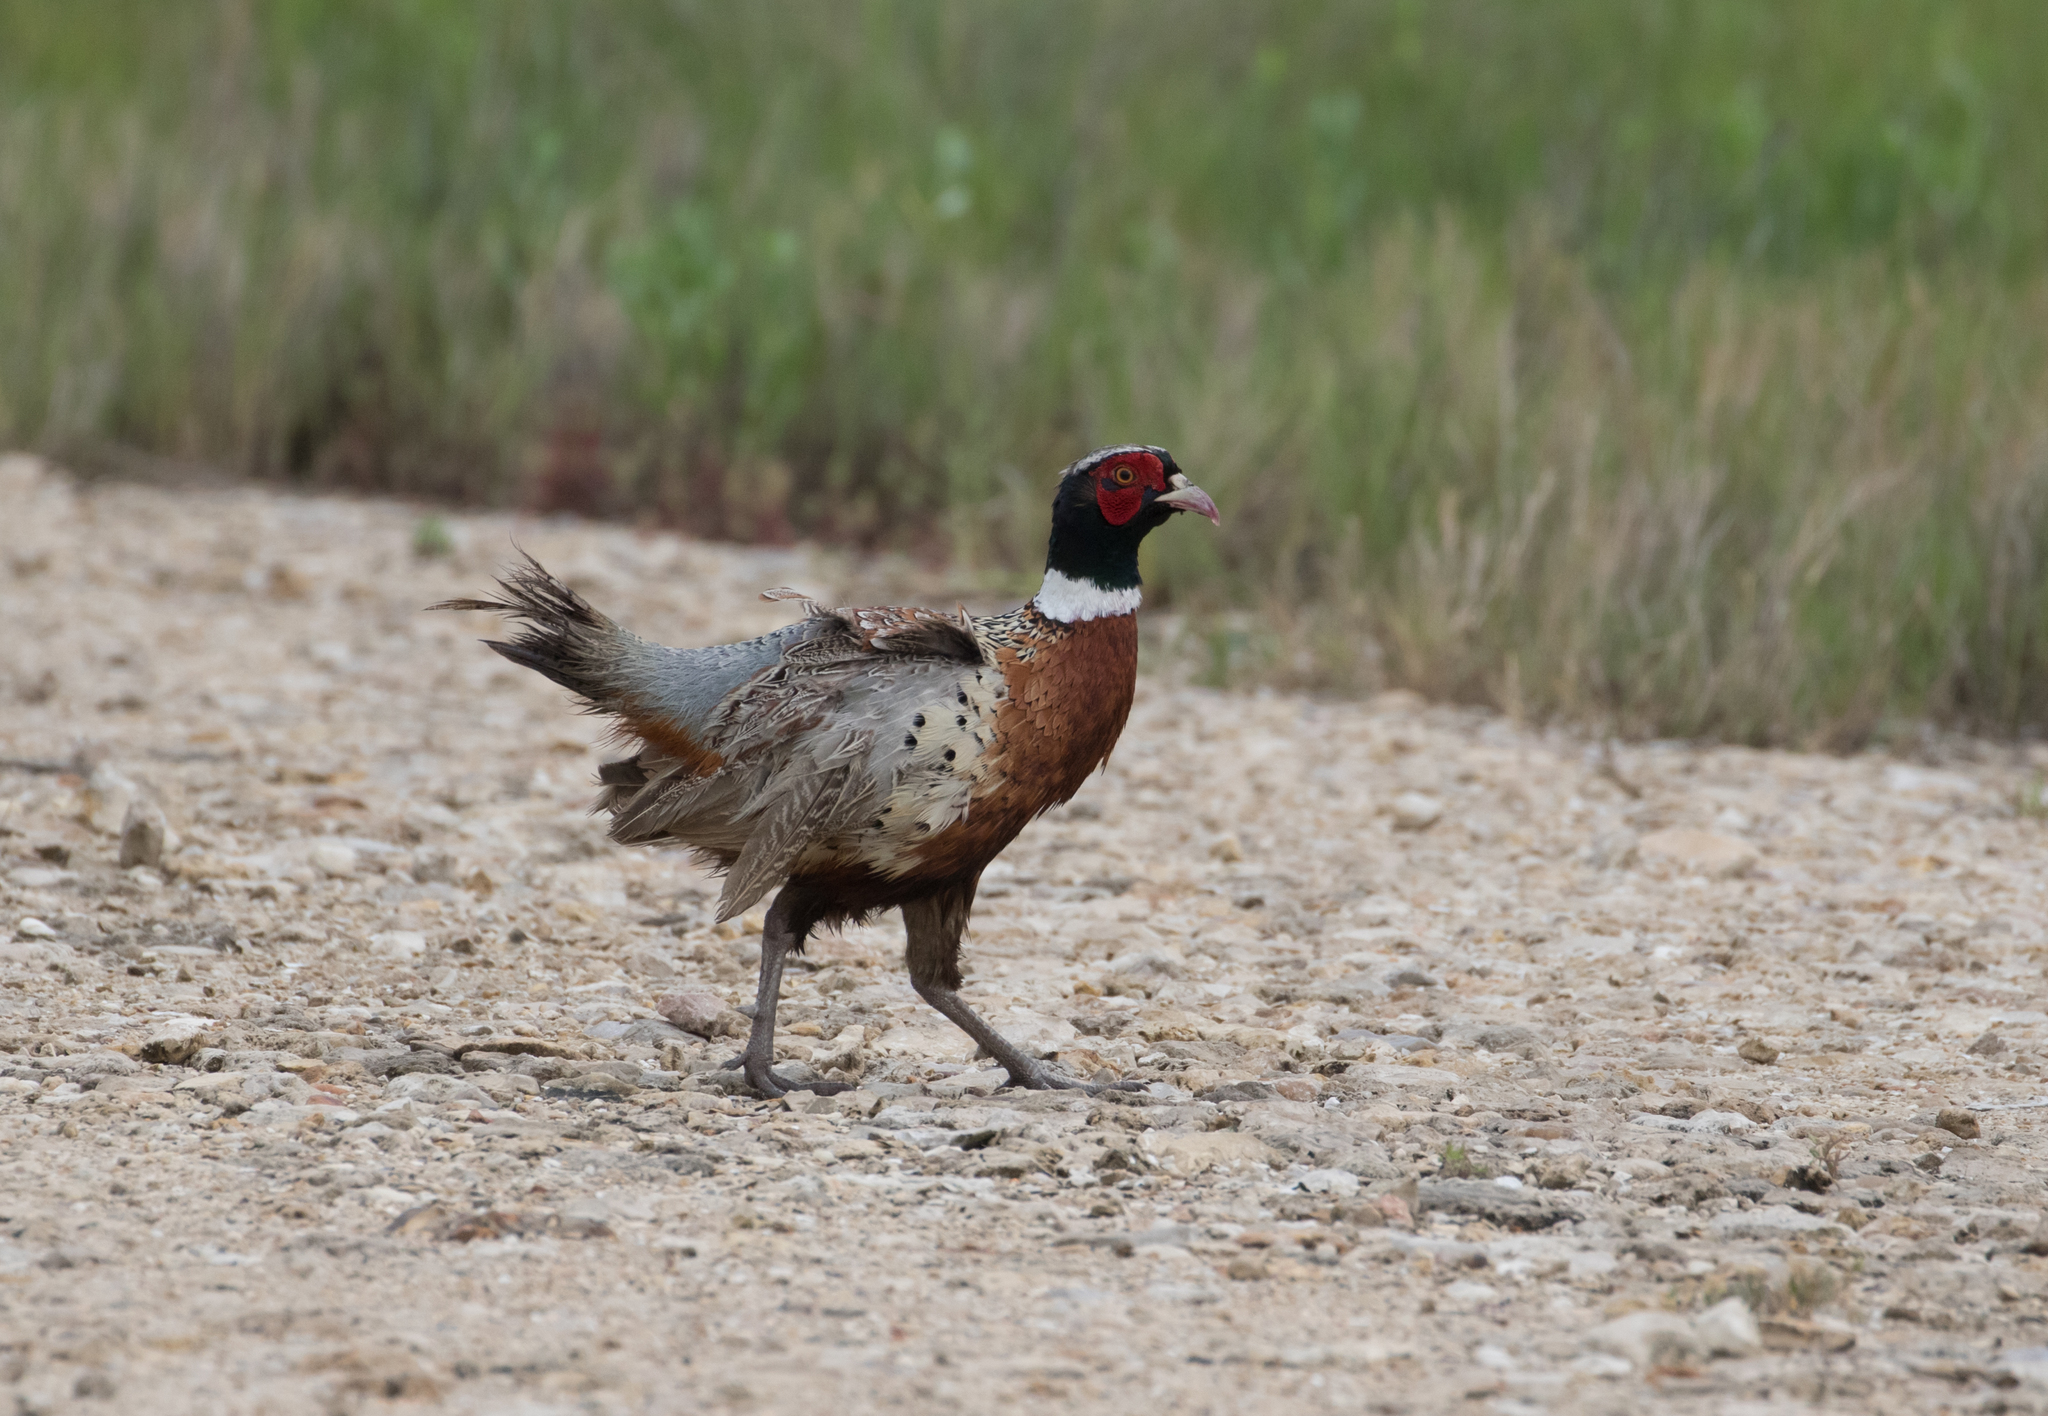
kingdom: Animalia
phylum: Chordata
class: Aves
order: Galliformes
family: Phasianidae
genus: Phasianus
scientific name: Phasianus colchicus
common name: Common pheasant
